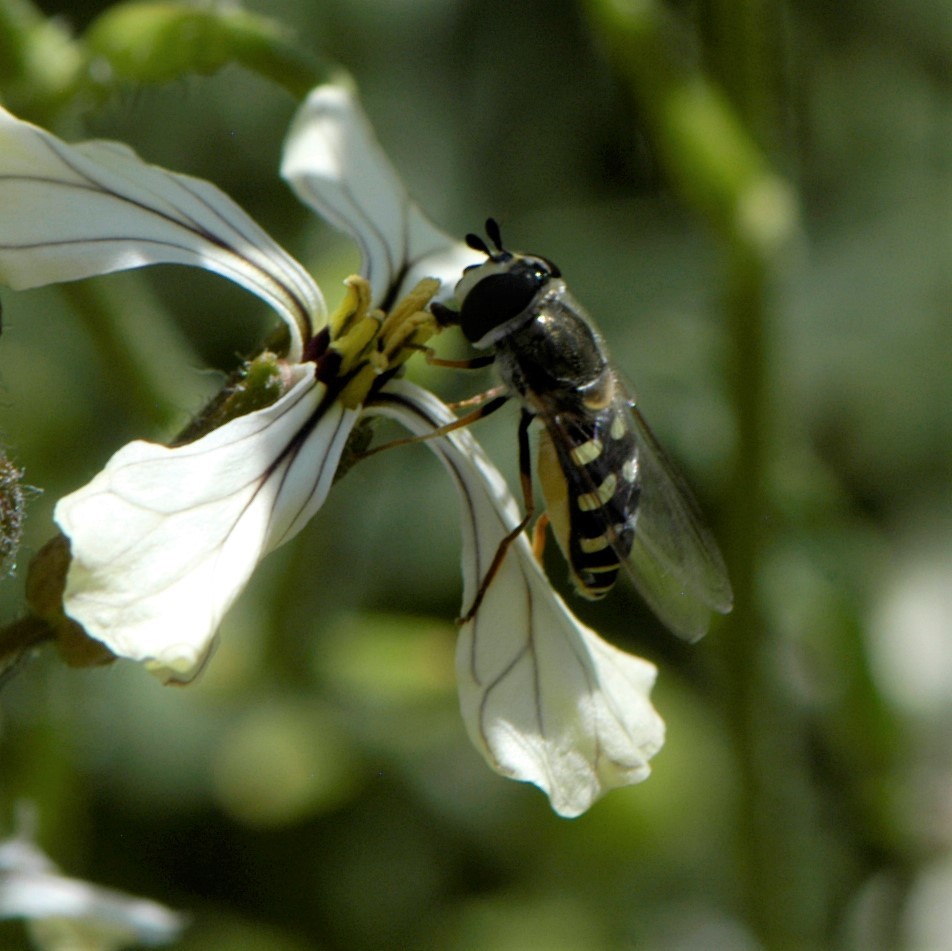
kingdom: Animalia
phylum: Arthropoda
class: Insecta
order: Diptera
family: Syrphidae
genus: Eupeodes
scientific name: Eupeodes volucris
